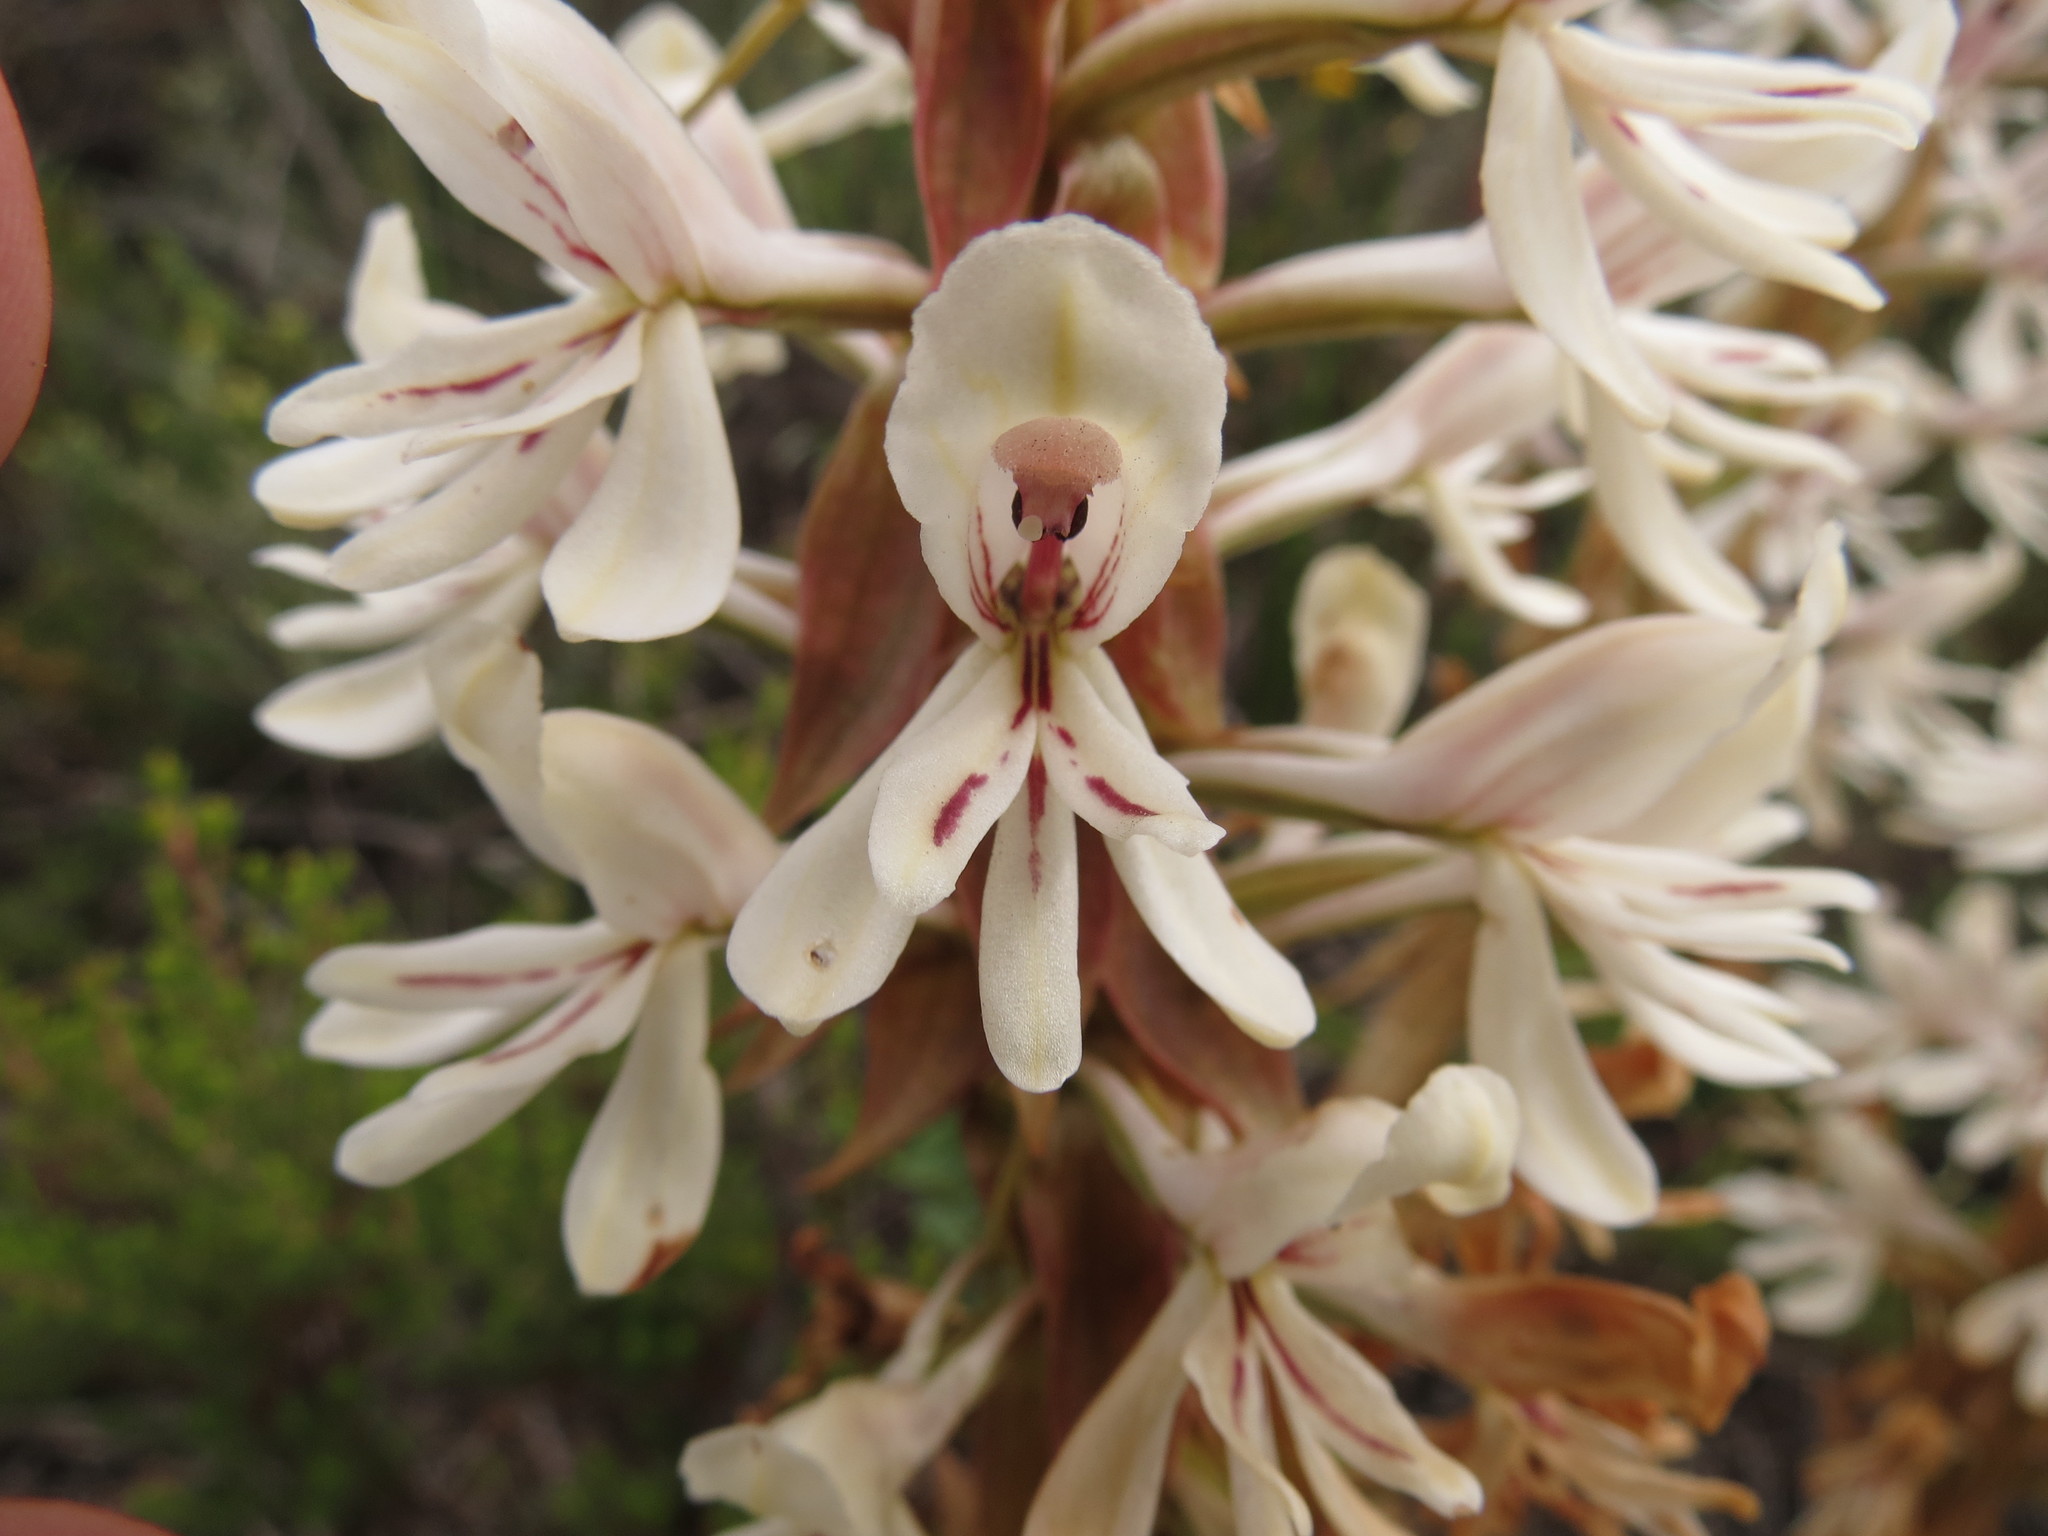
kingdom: Plantae
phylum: Tracheophyta
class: Liliopsida
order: Asparagales
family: Orchidaceae
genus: Satyrium
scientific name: Satyrium longicolle
